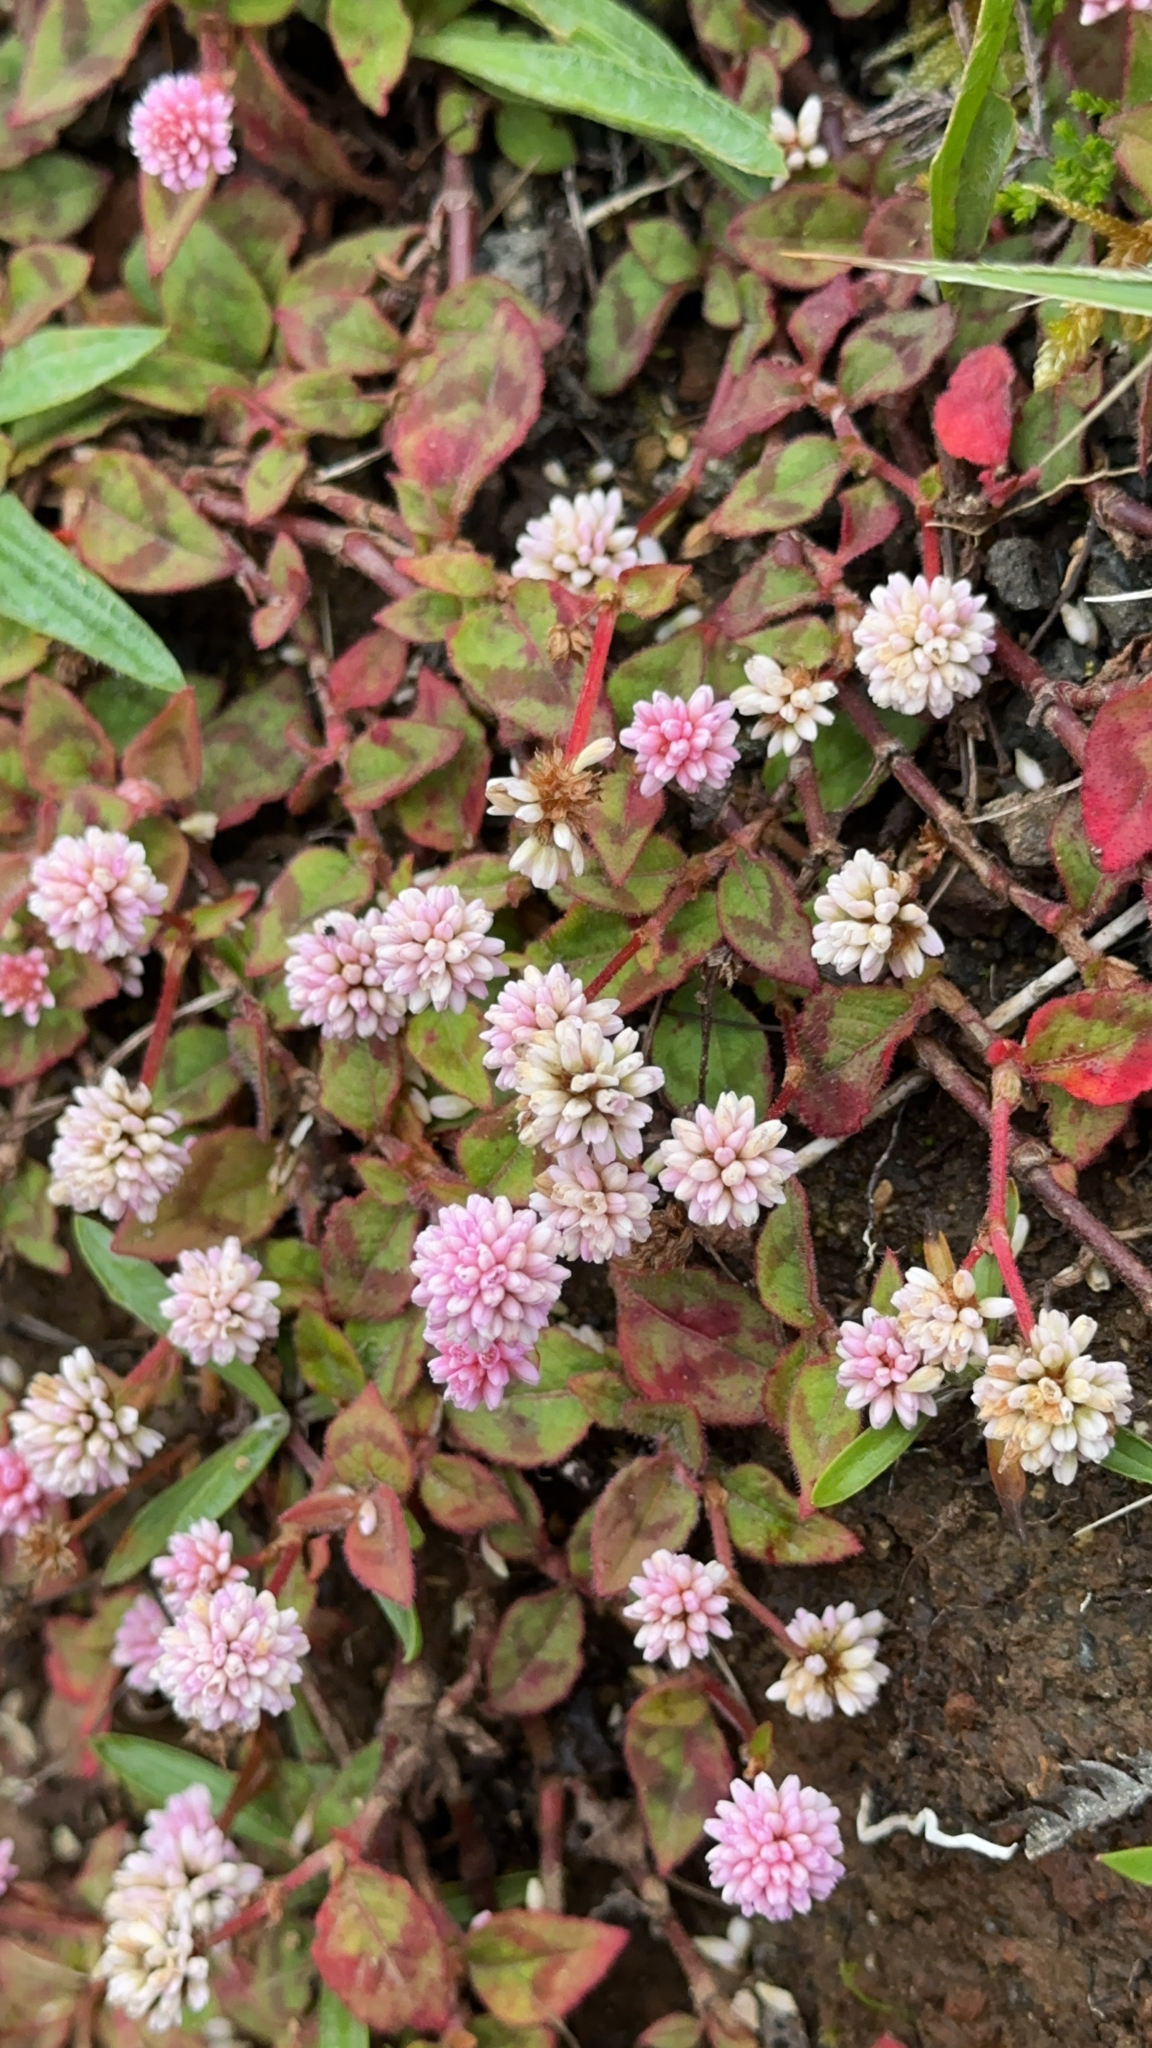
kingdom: Plantae
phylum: Tracheophyta
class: Magnoliopsida
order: Caryophyllales
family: Polygonaceae
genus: Persicaria
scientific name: Persicaria capitata
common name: Pinkhead smartweed
